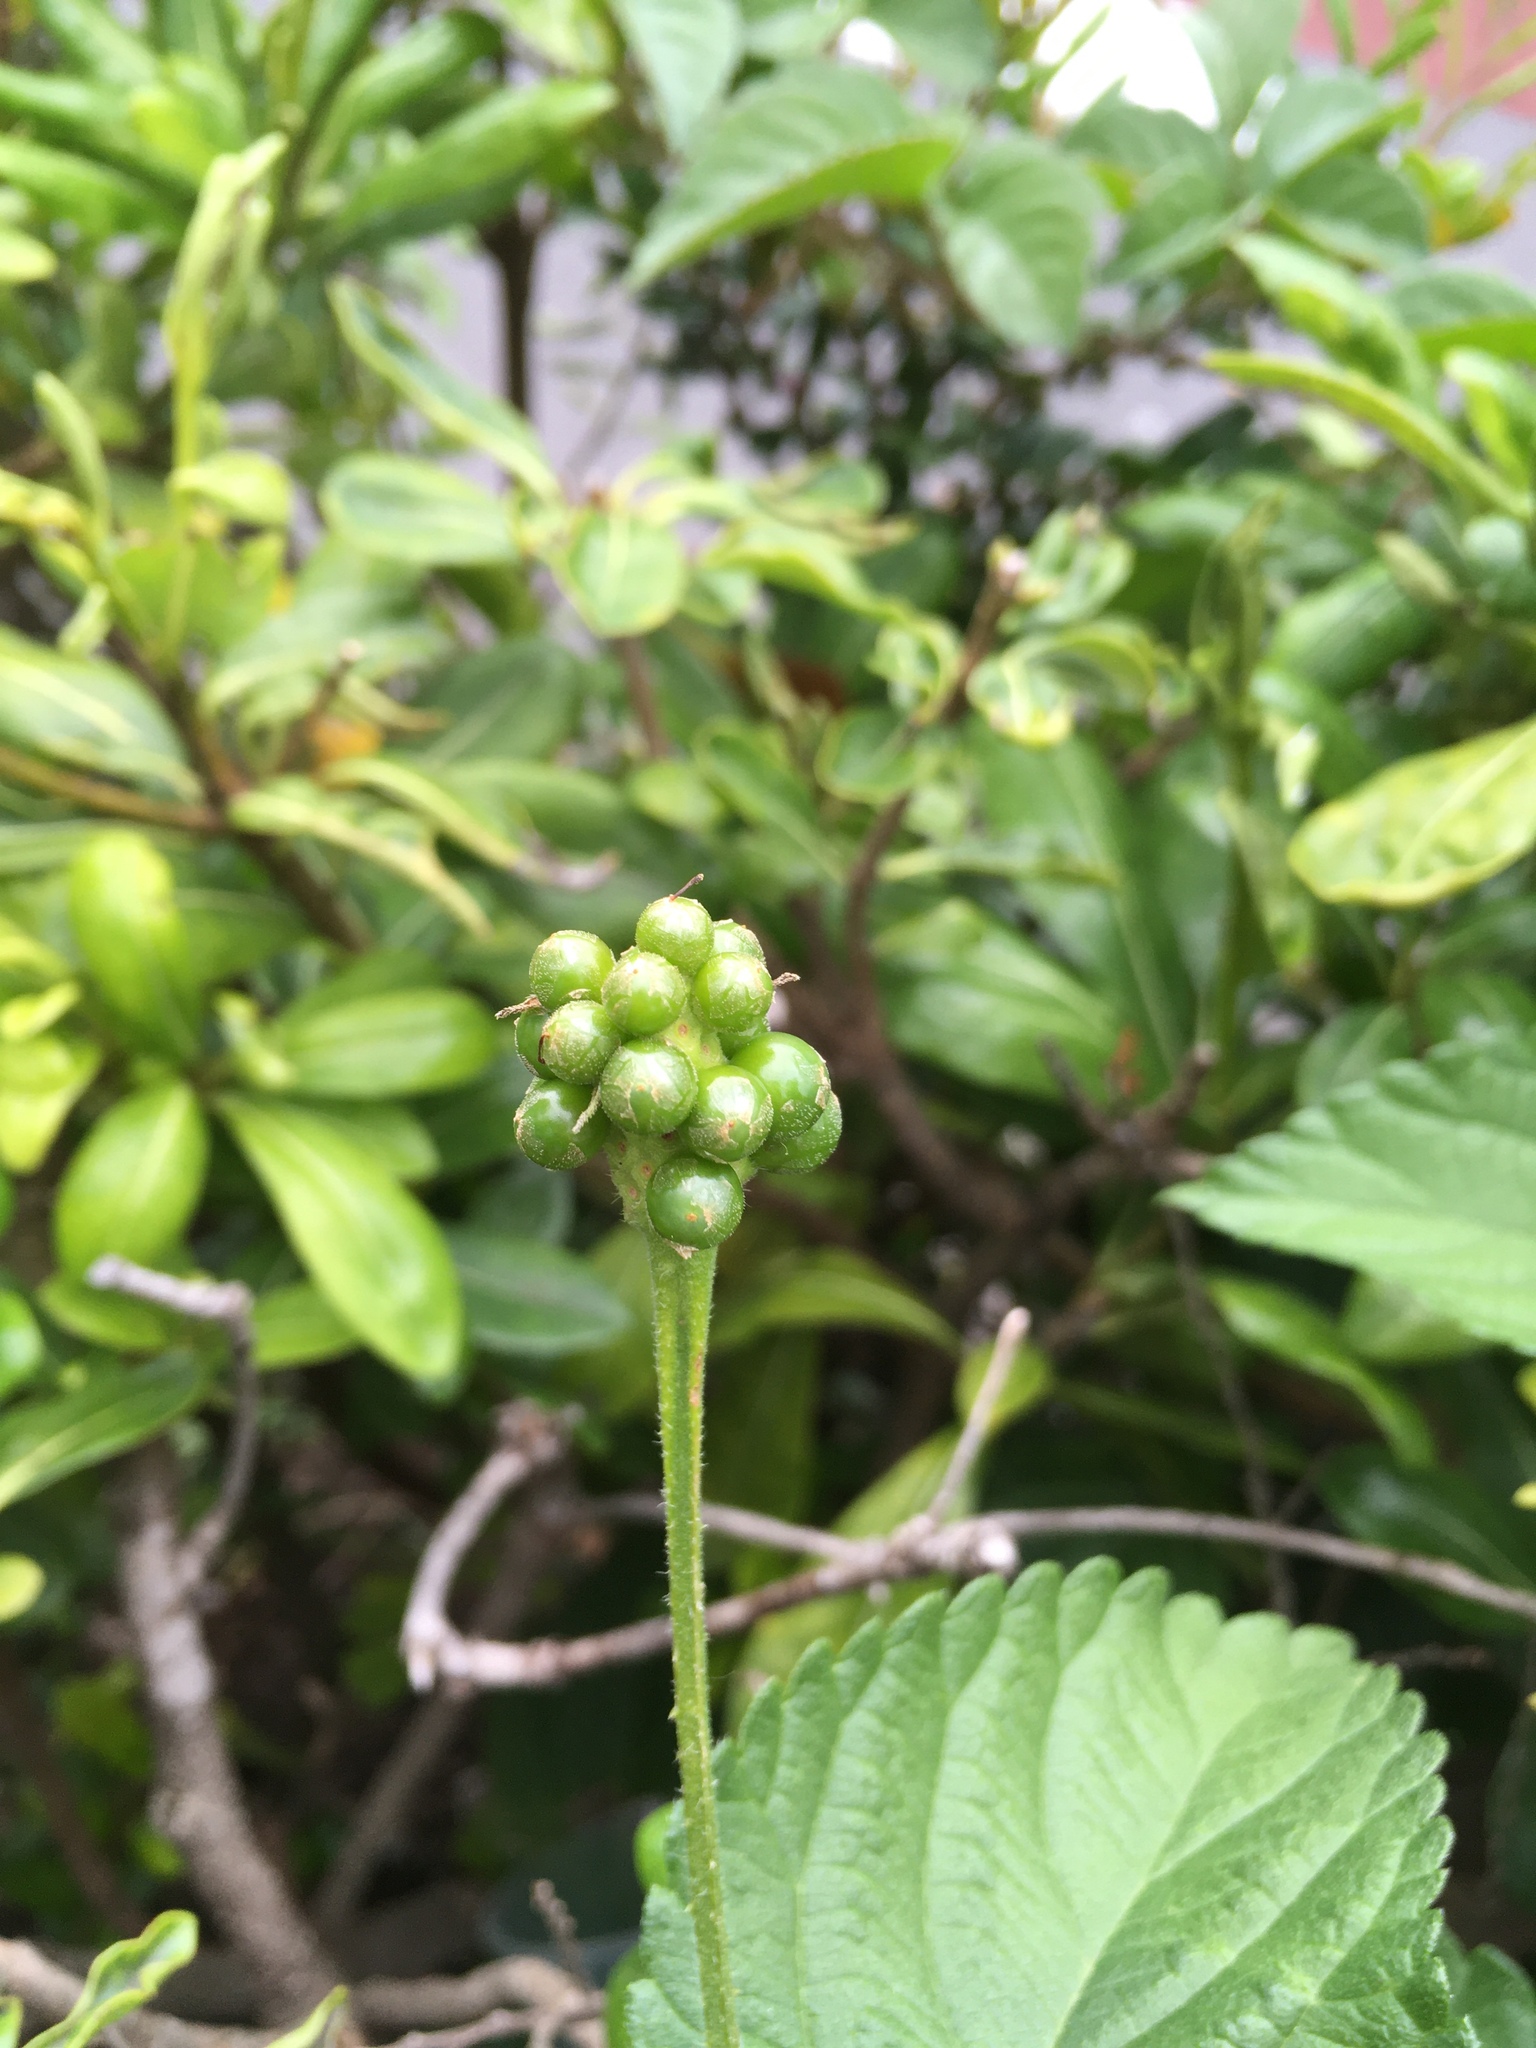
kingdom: Plantae
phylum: Tracheophyta
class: Magnoliopsida
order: Lamiales
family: Verbenaceae
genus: Lantana
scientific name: Lantana strigocamara
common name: Lantana
